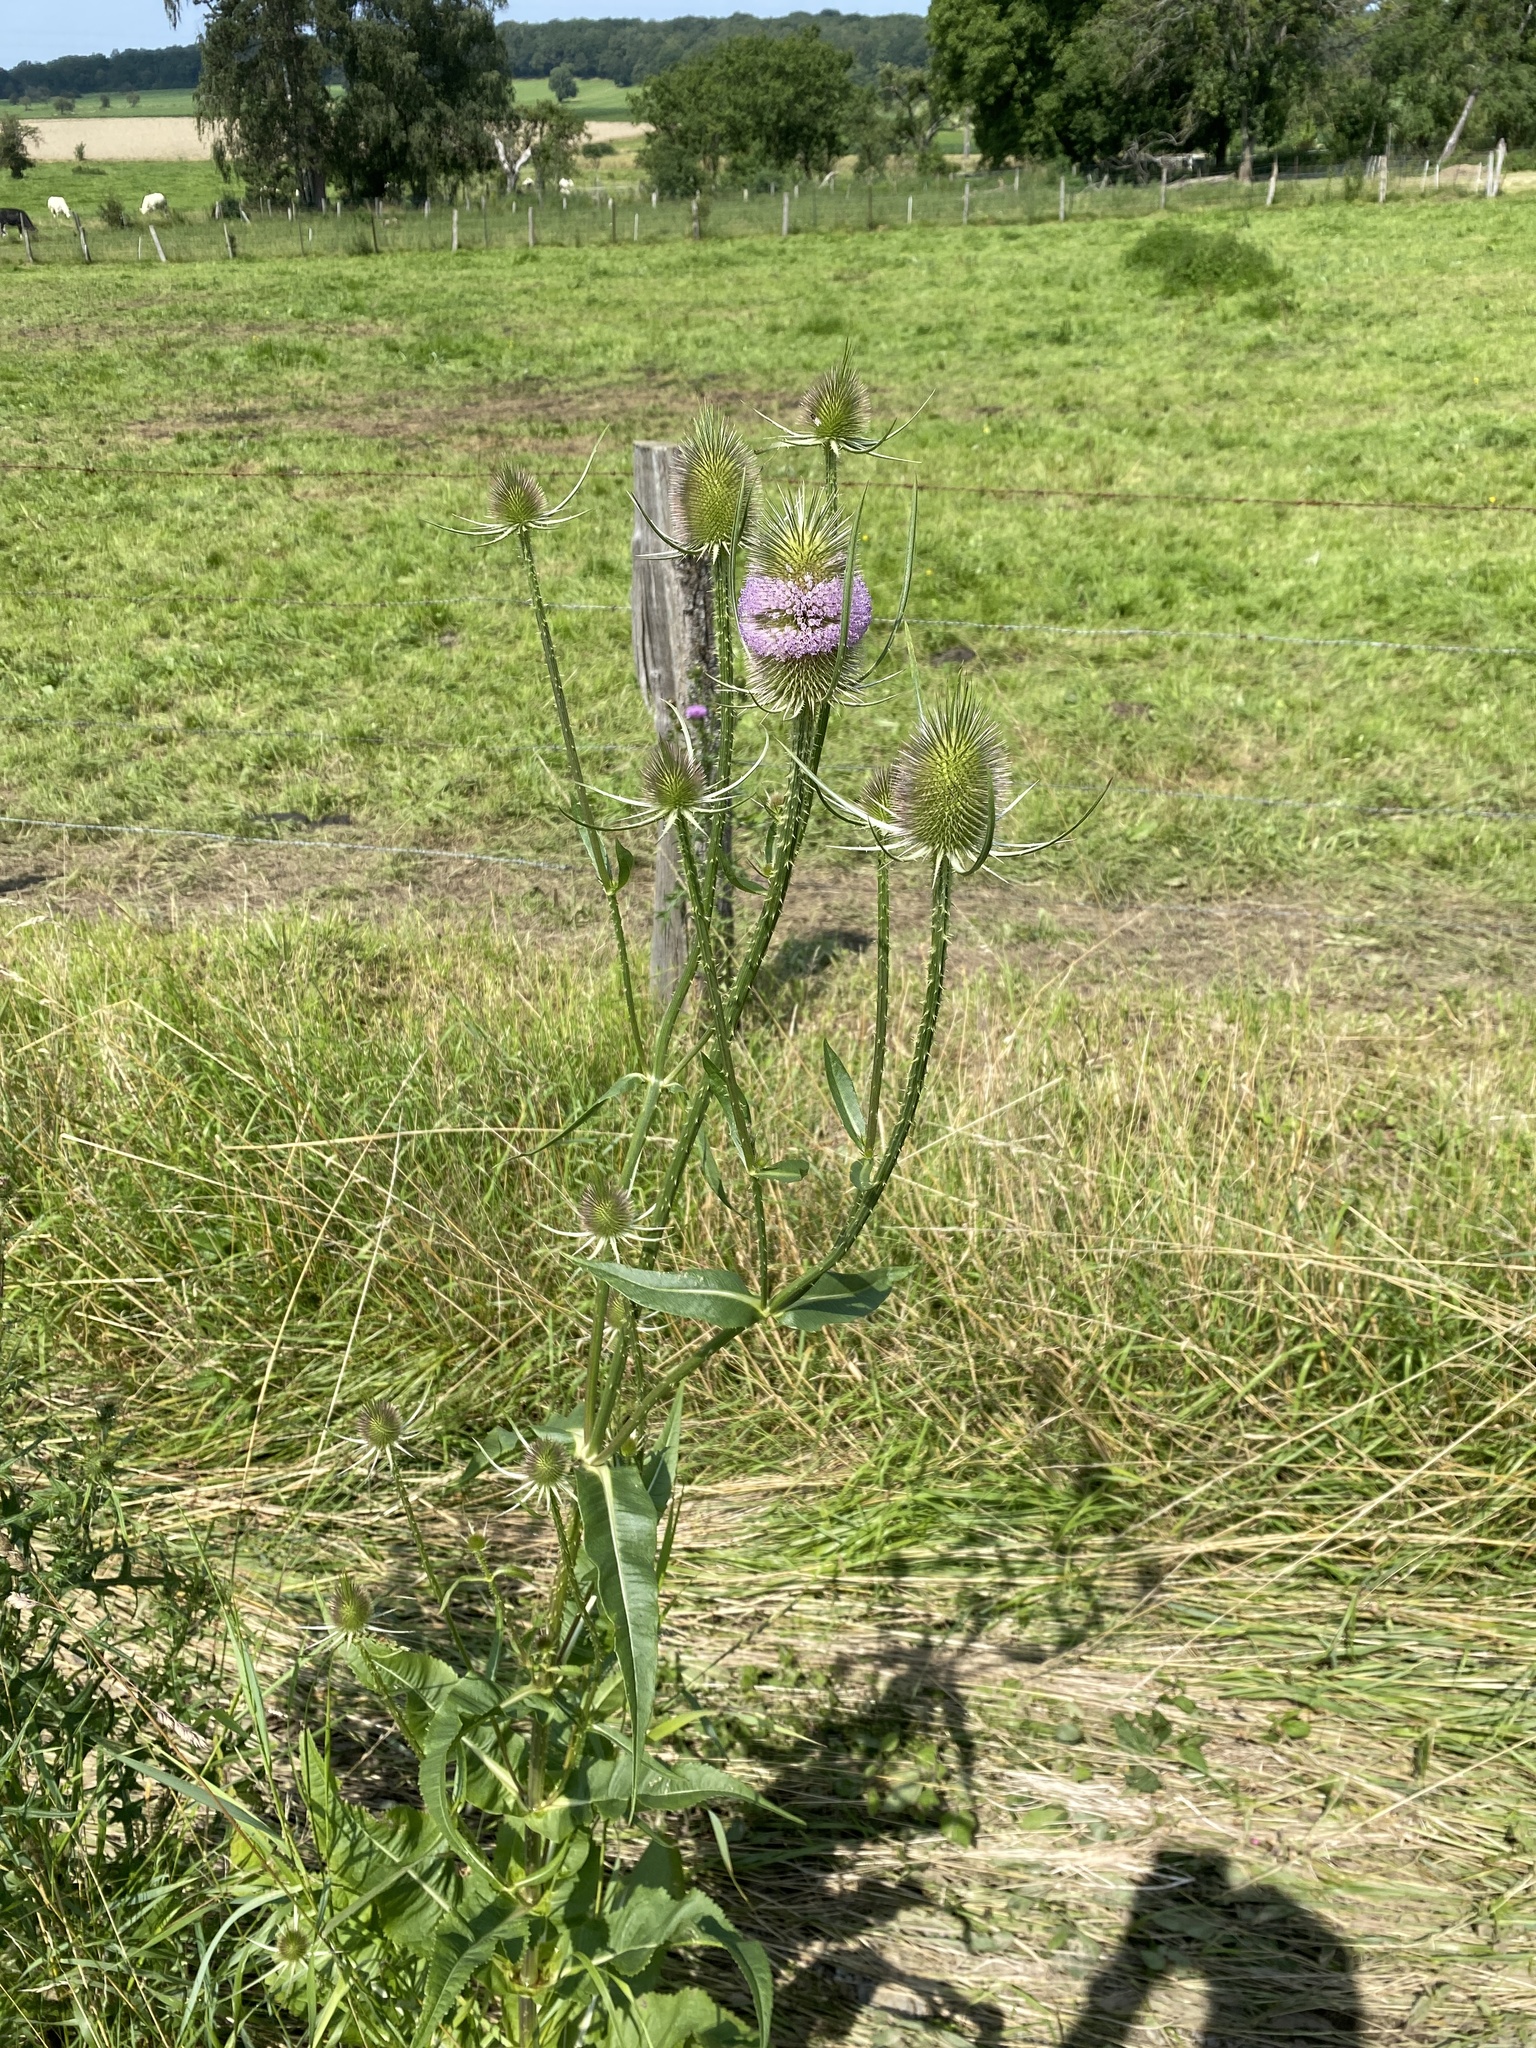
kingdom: Plantae
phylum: Tracheophyta
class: Magnoliopsida
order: Dipsacales
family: Caprifoliaceae
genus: Dipsacus
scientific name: Dipsacus fullonum
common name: Teasel
